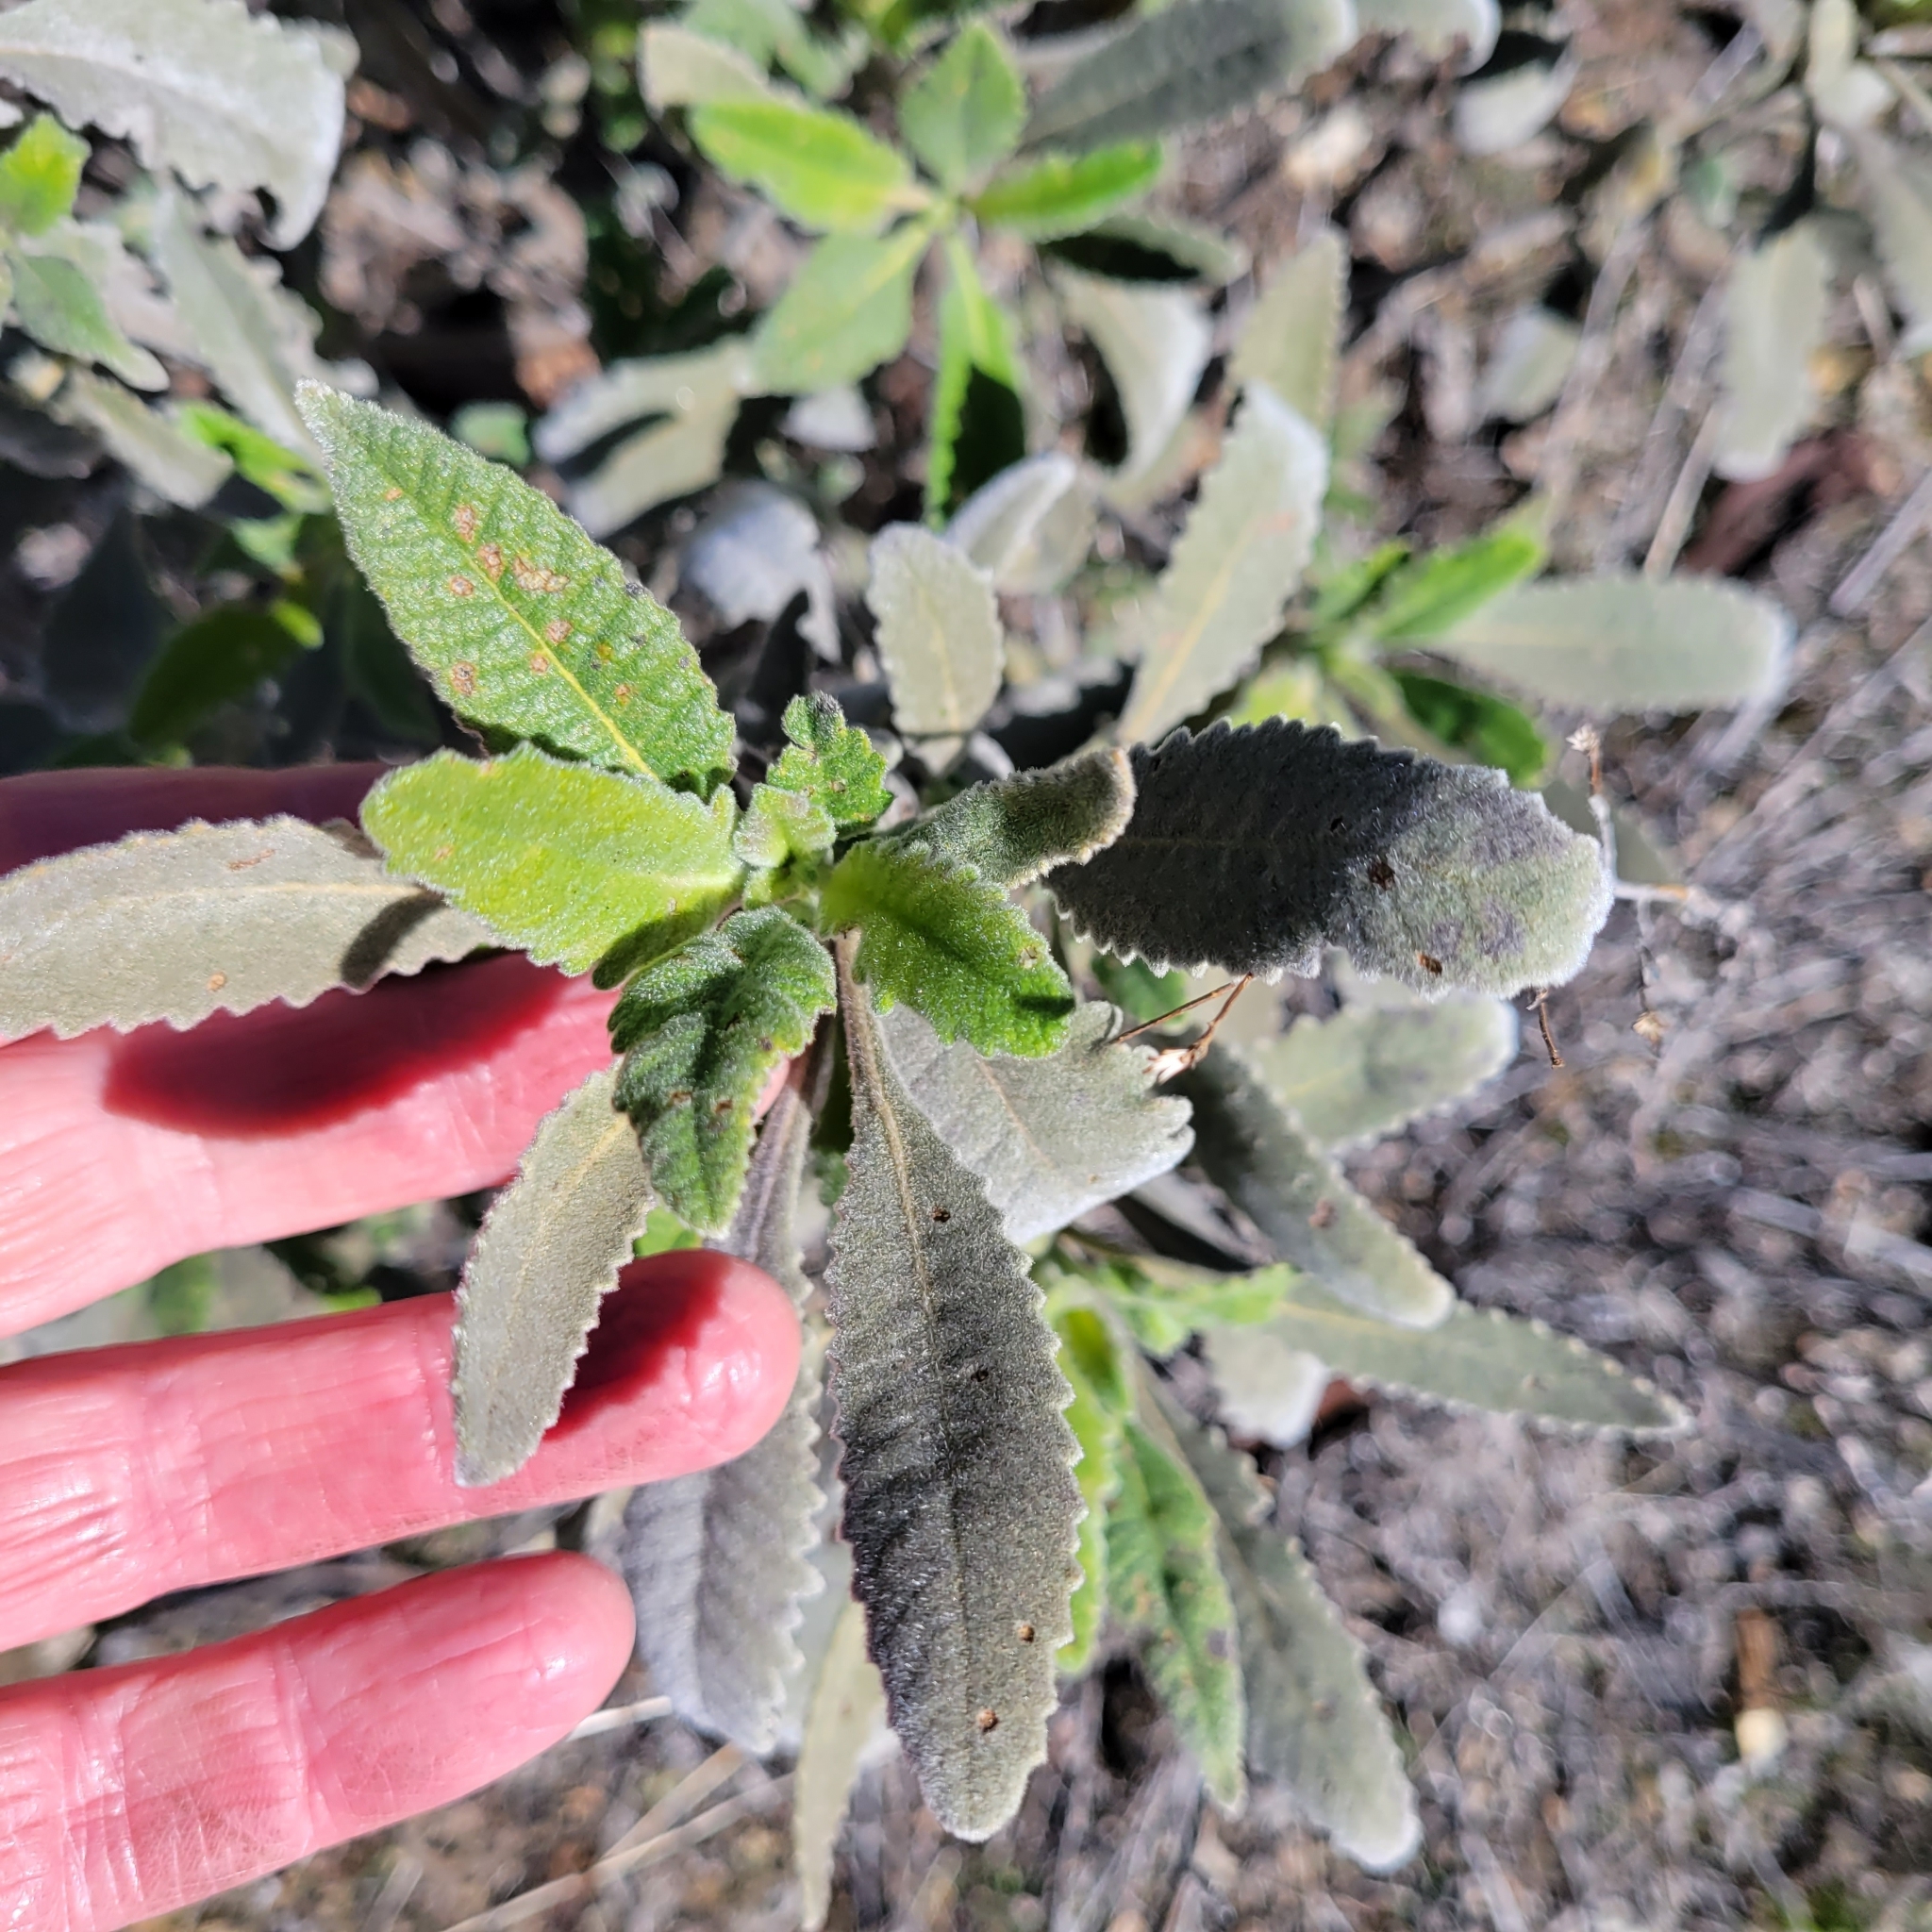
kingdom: Plantae
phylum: Tracheophyta
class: Magnoliopsida
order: Boraginales
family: Namaceae
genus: Eriodictyon
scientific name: Eriodictyon crassifolium
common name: Thick-leaf yerba-santa
